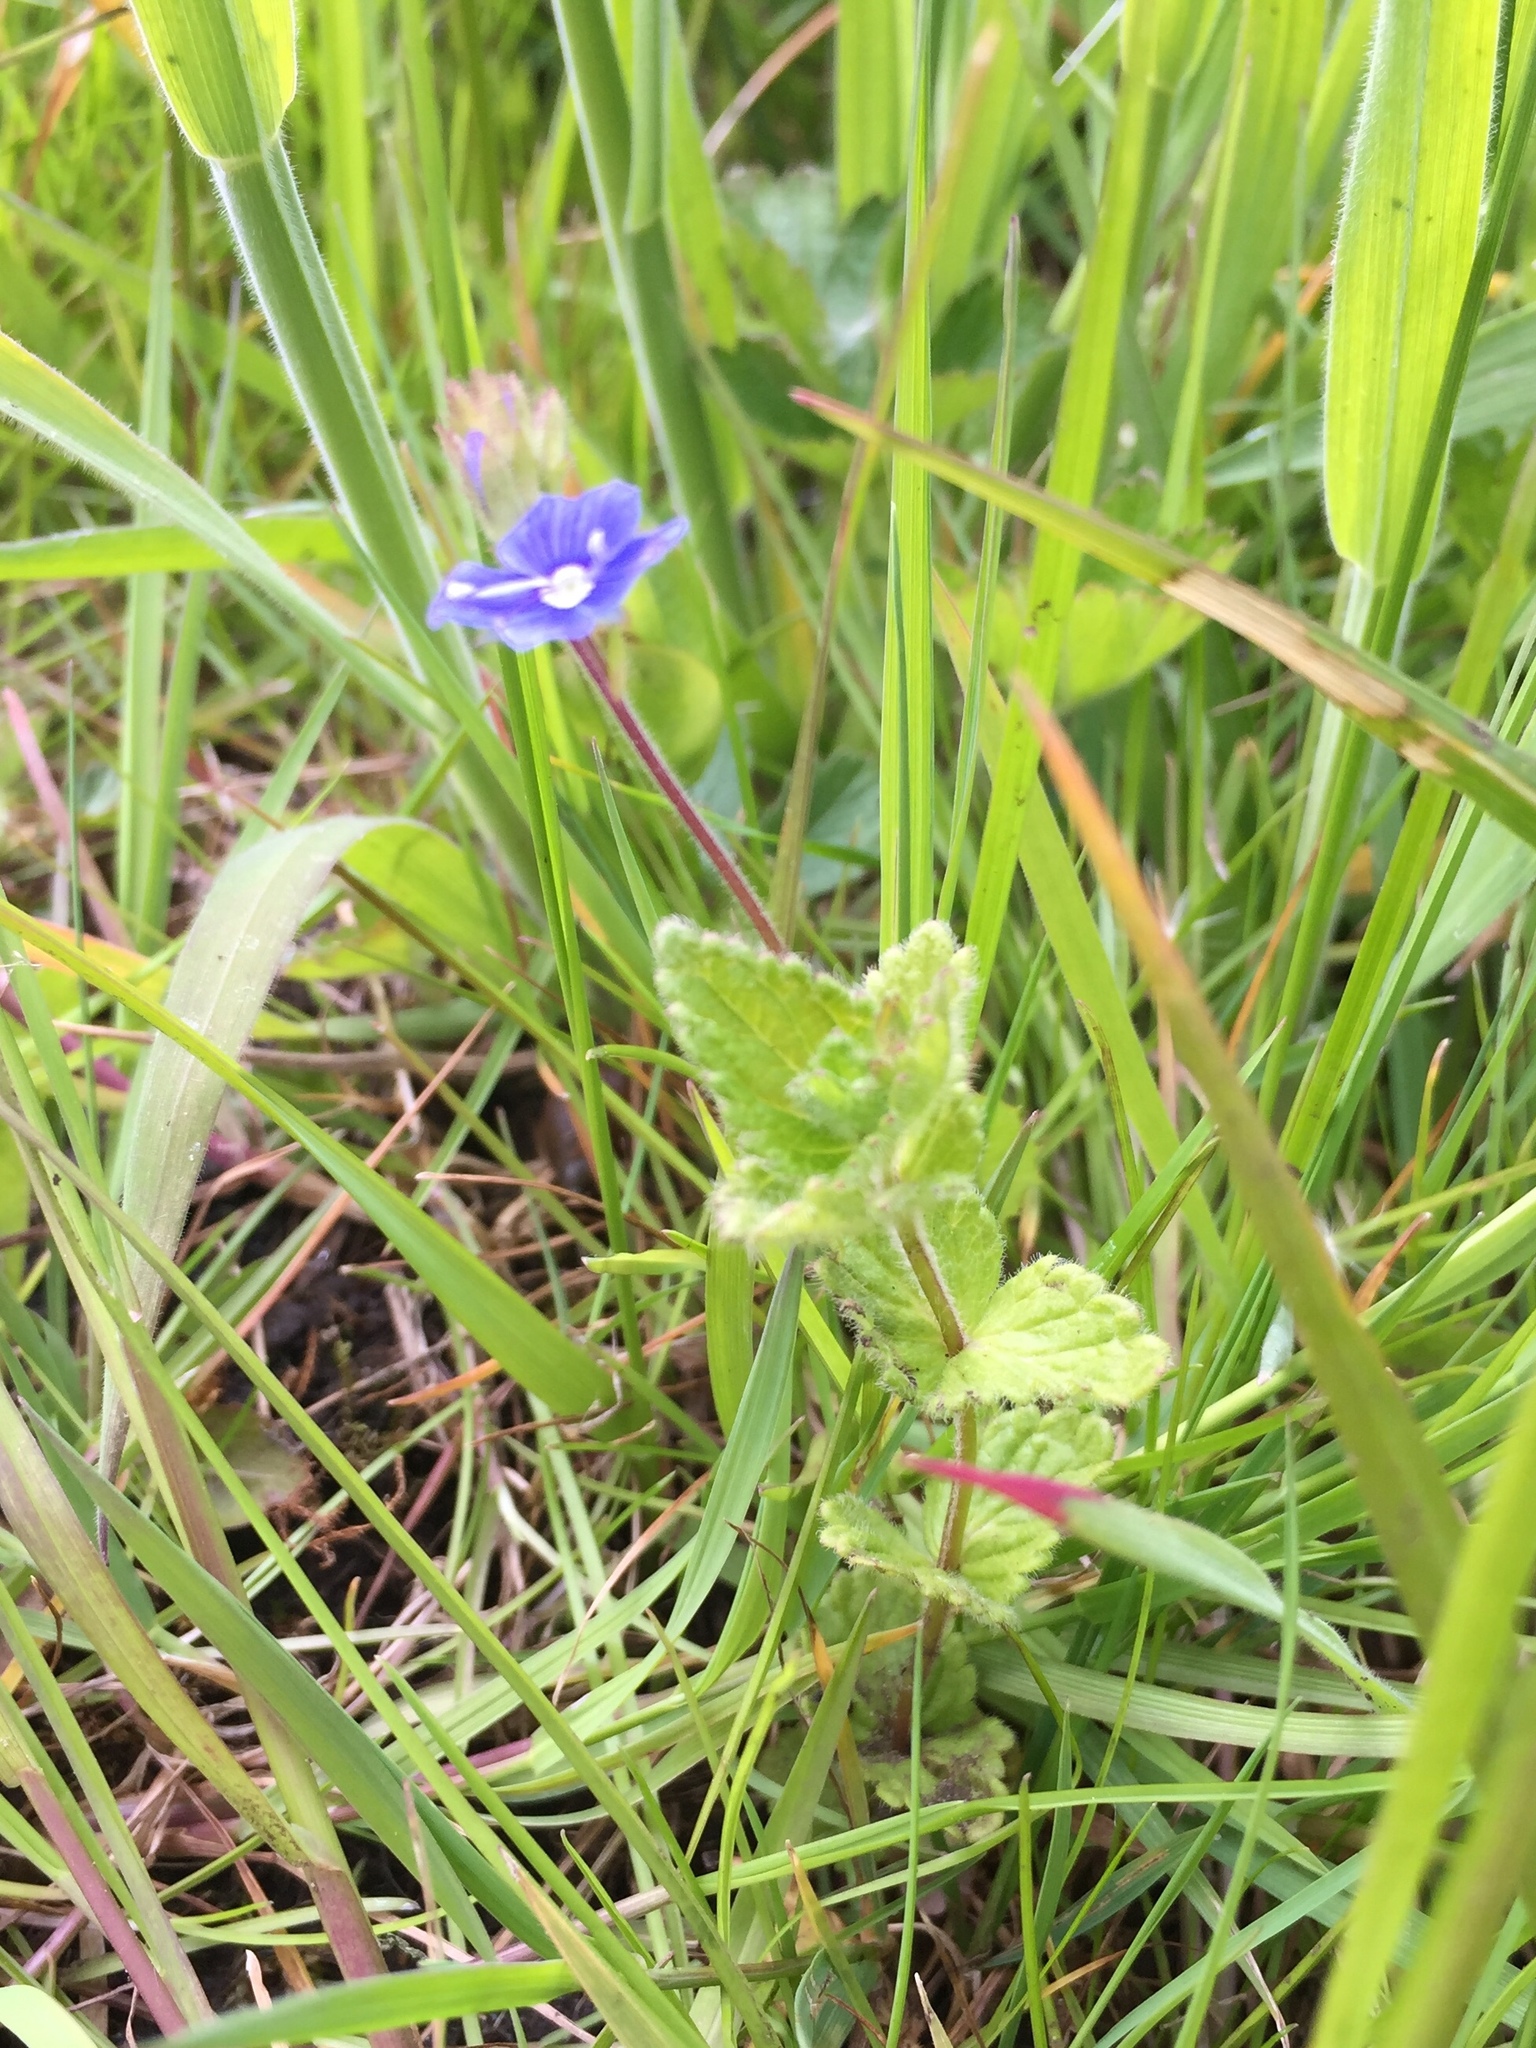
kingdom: Plantae
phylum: Tracheophyta
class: Magnoliopsida
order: Lamiales
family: Plantaginaceae
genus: Veronica
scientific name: Veronica chamaedrys
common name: Germander speedwell
